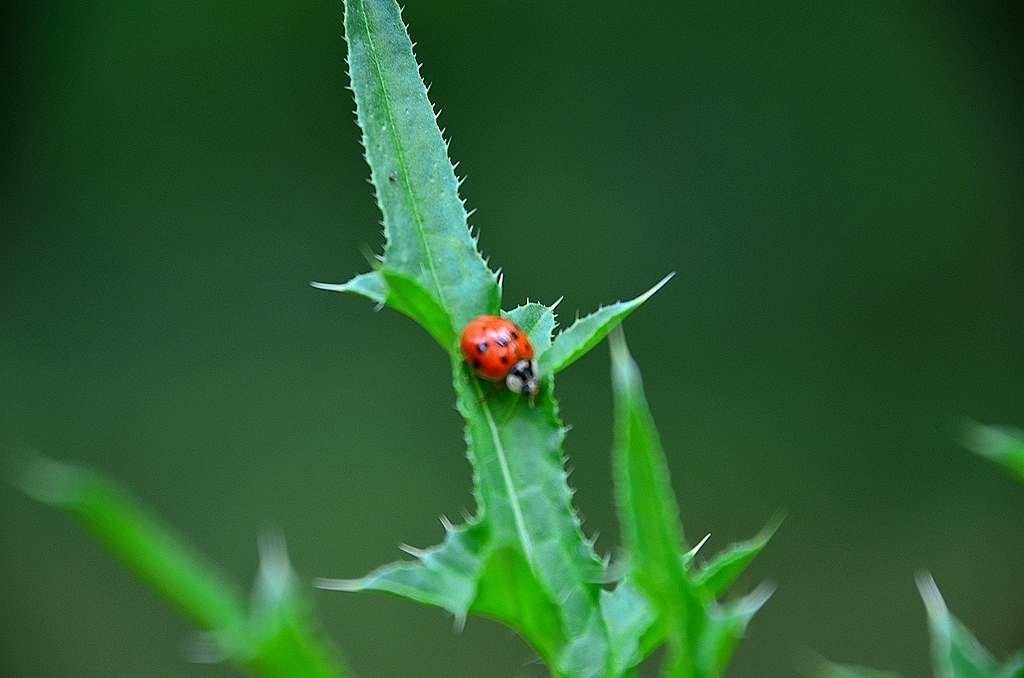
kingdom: Animalia
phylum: Arthropoda
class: Insecta
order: Coleoptera
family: Coccinellidae
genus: Harmonia
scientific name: Harmonia axyridis
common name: Harlequin ladybird
